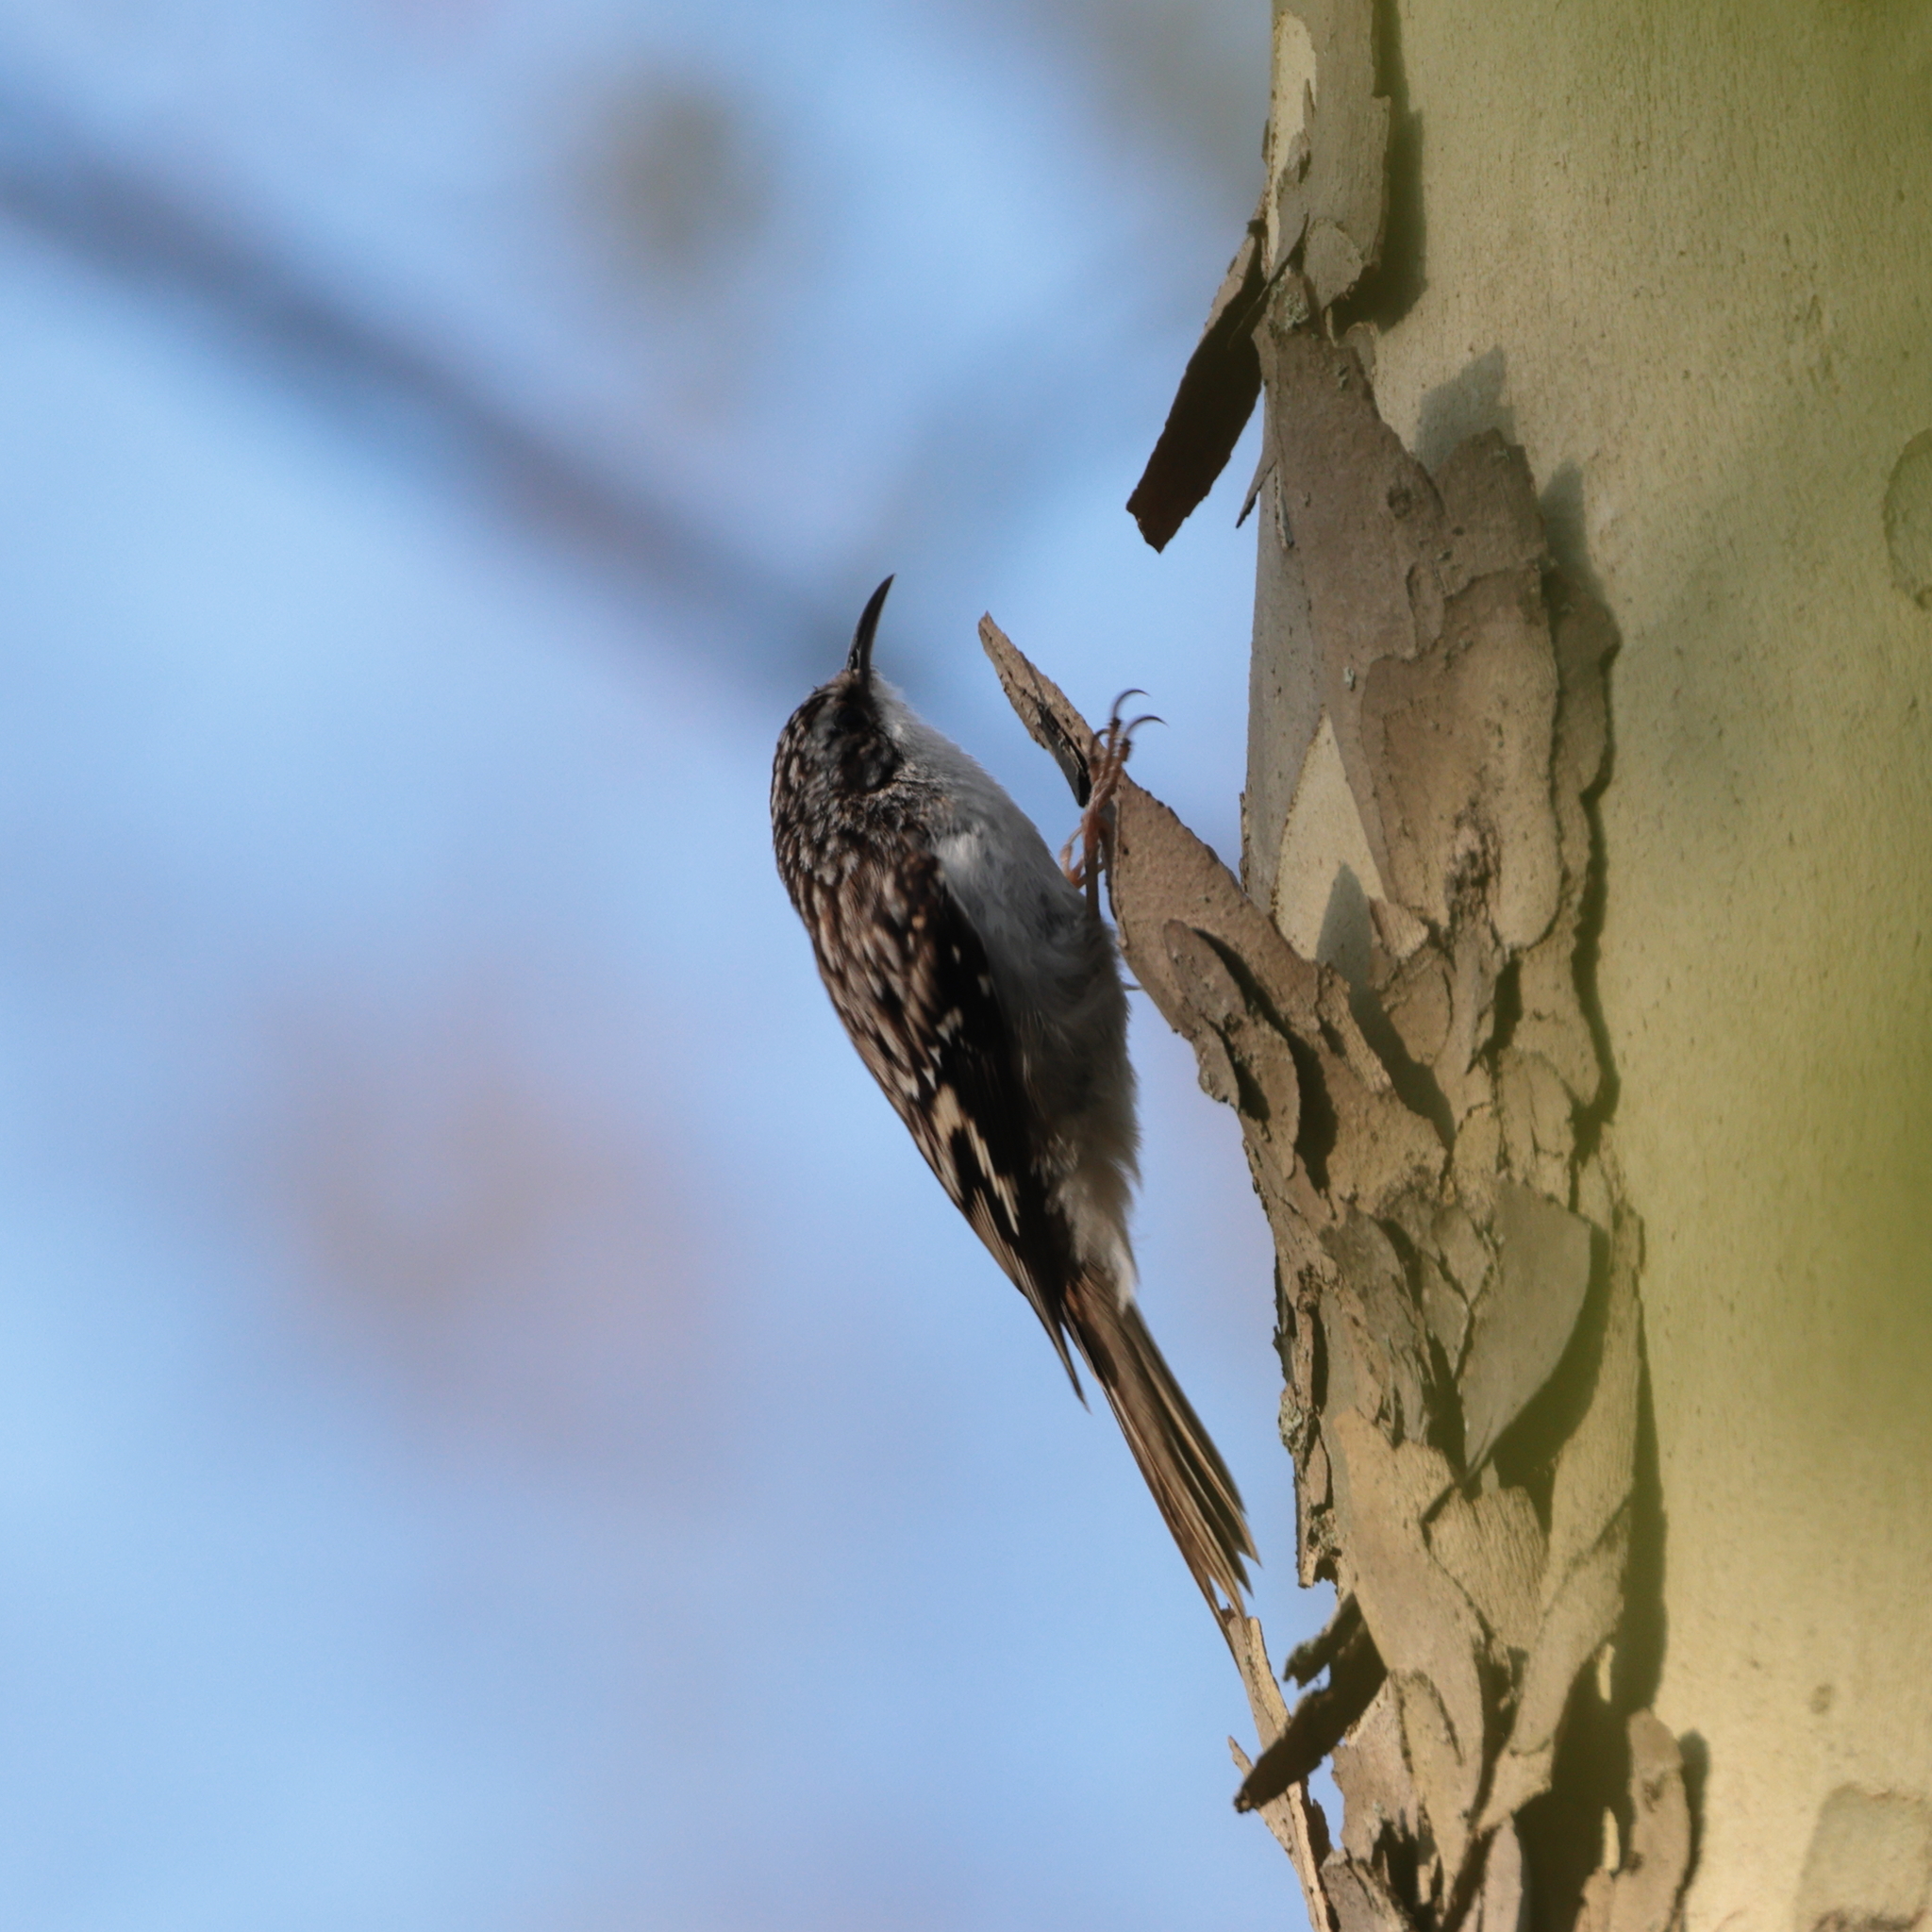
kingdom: Animalia
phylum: Chordata
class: Aves
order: Passeriformes
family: Certhiidae
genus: Certhia
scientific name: Certhia americana
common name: Brown creeper
